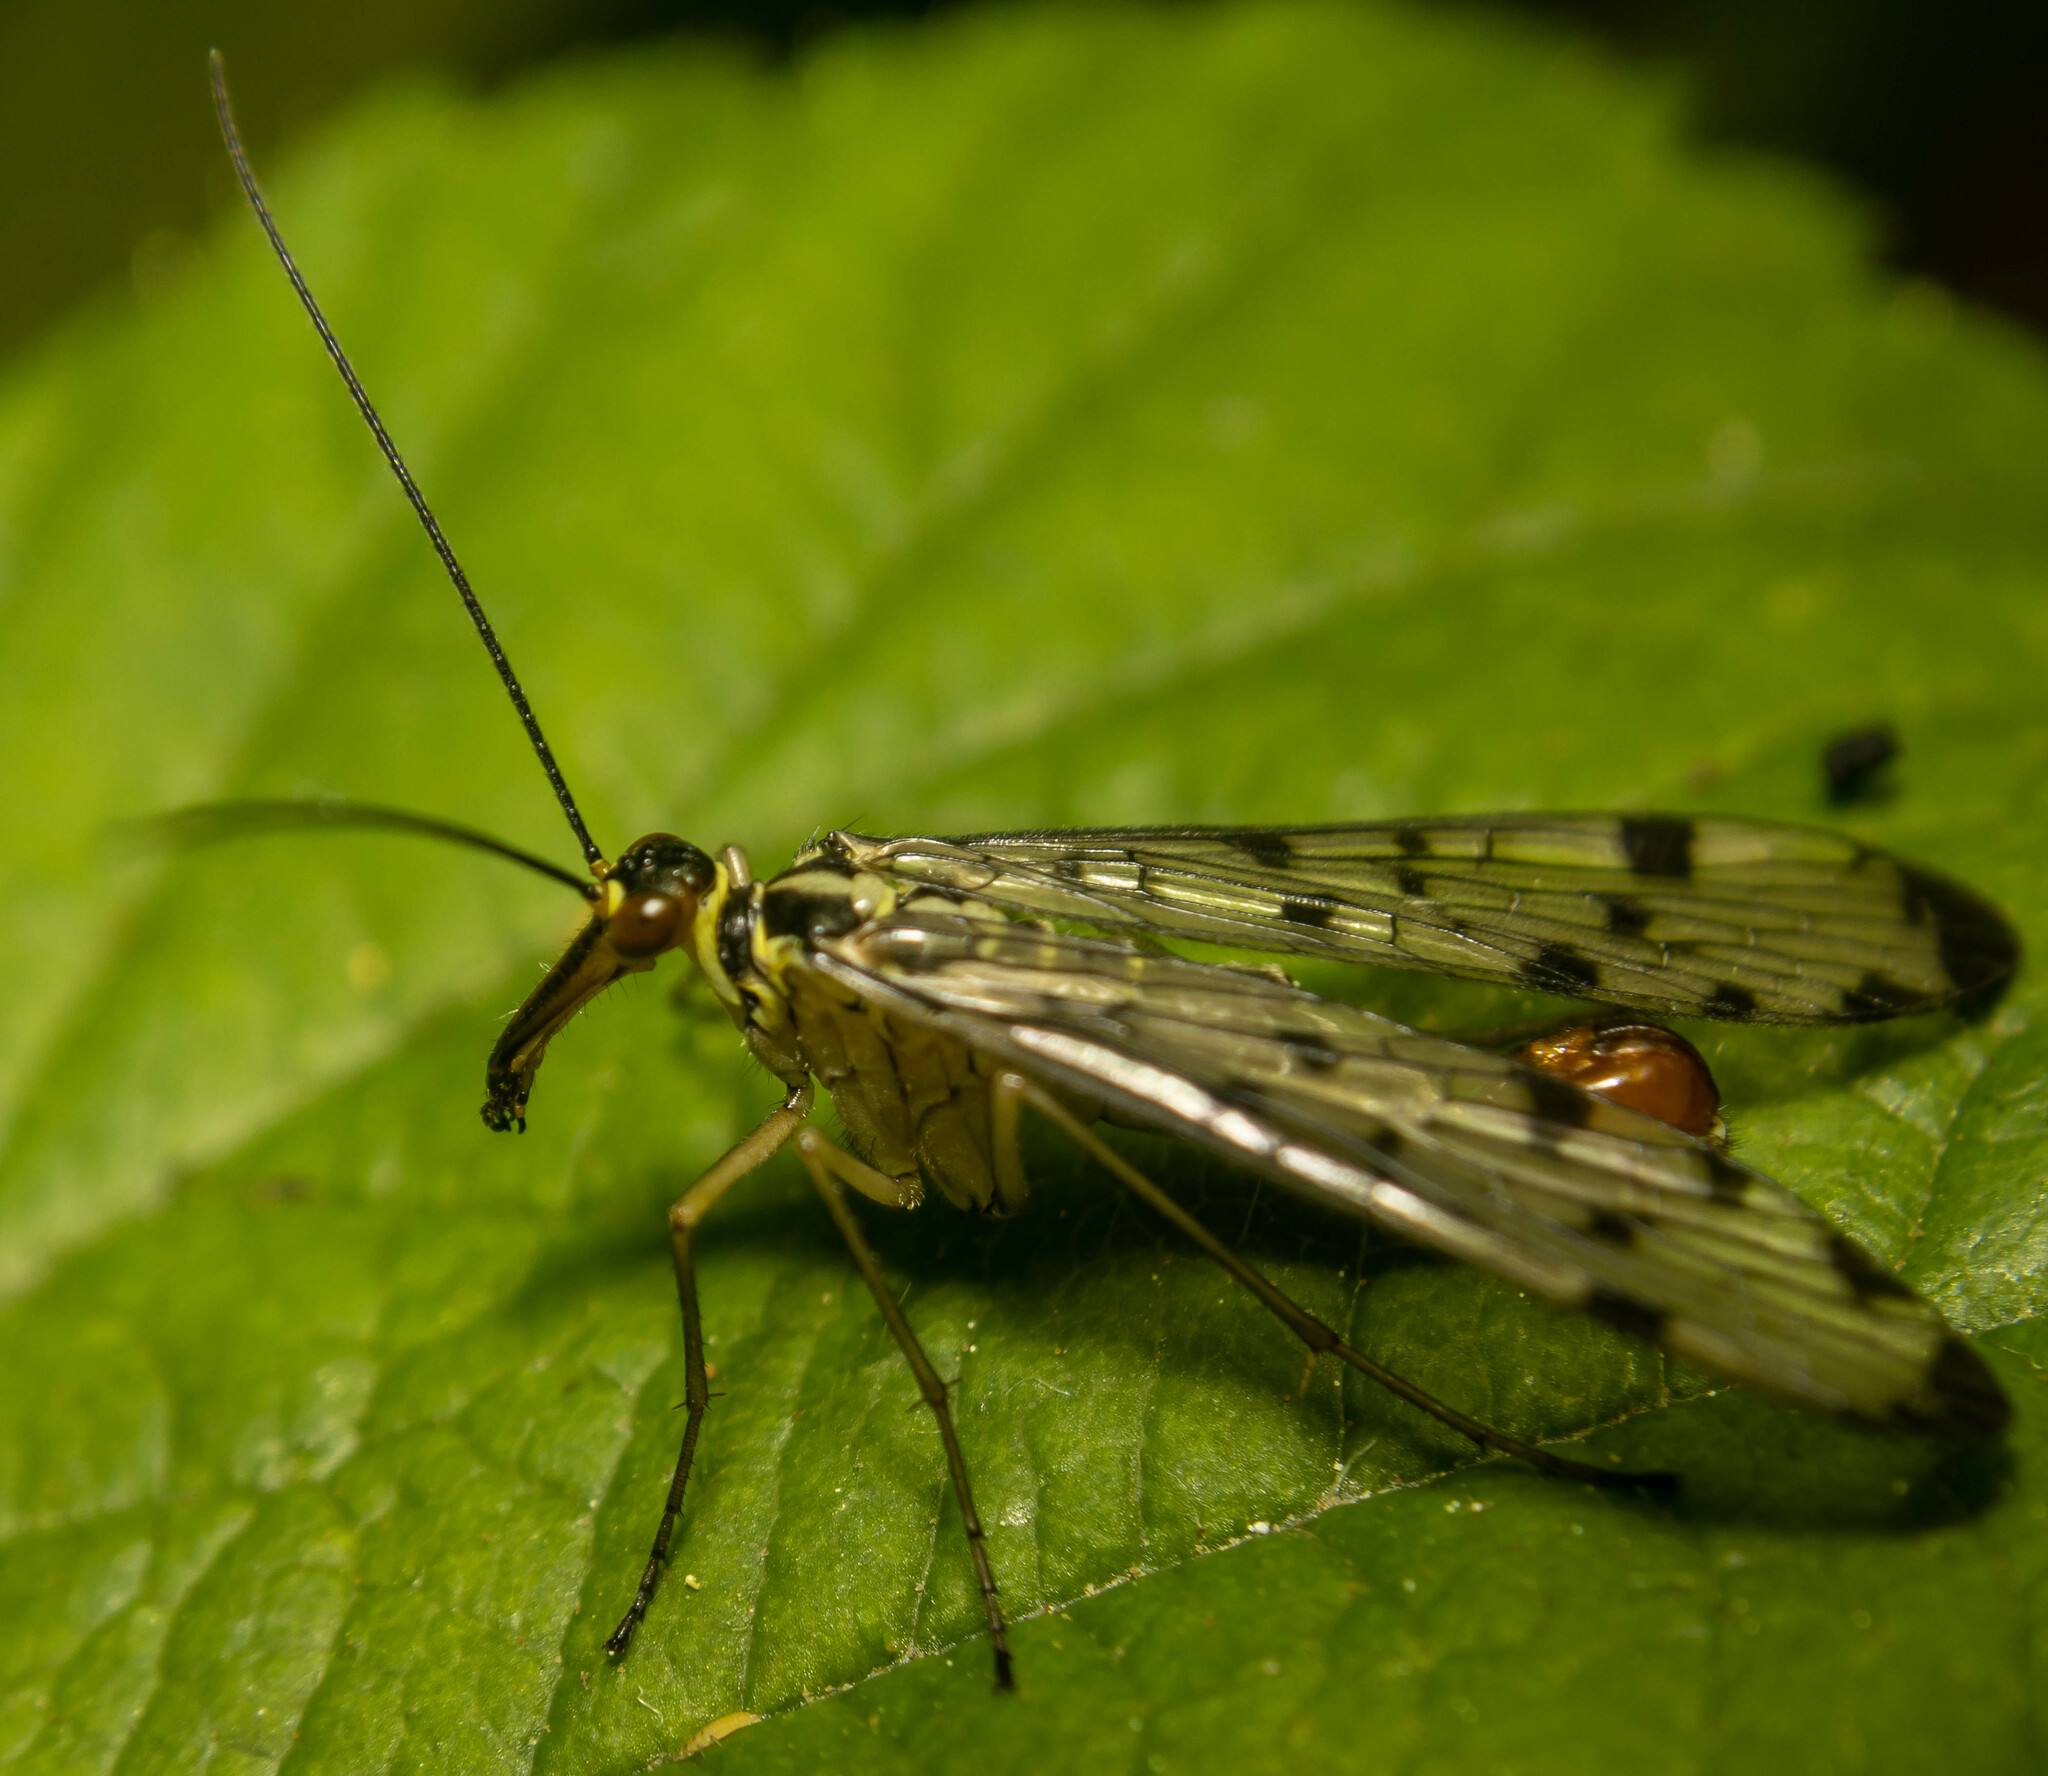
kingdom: Animalia
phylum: Arthropoda
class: Insecta
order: Mecoptera
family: Panorpidae
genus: Panorpa
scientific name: Panorpa communis
